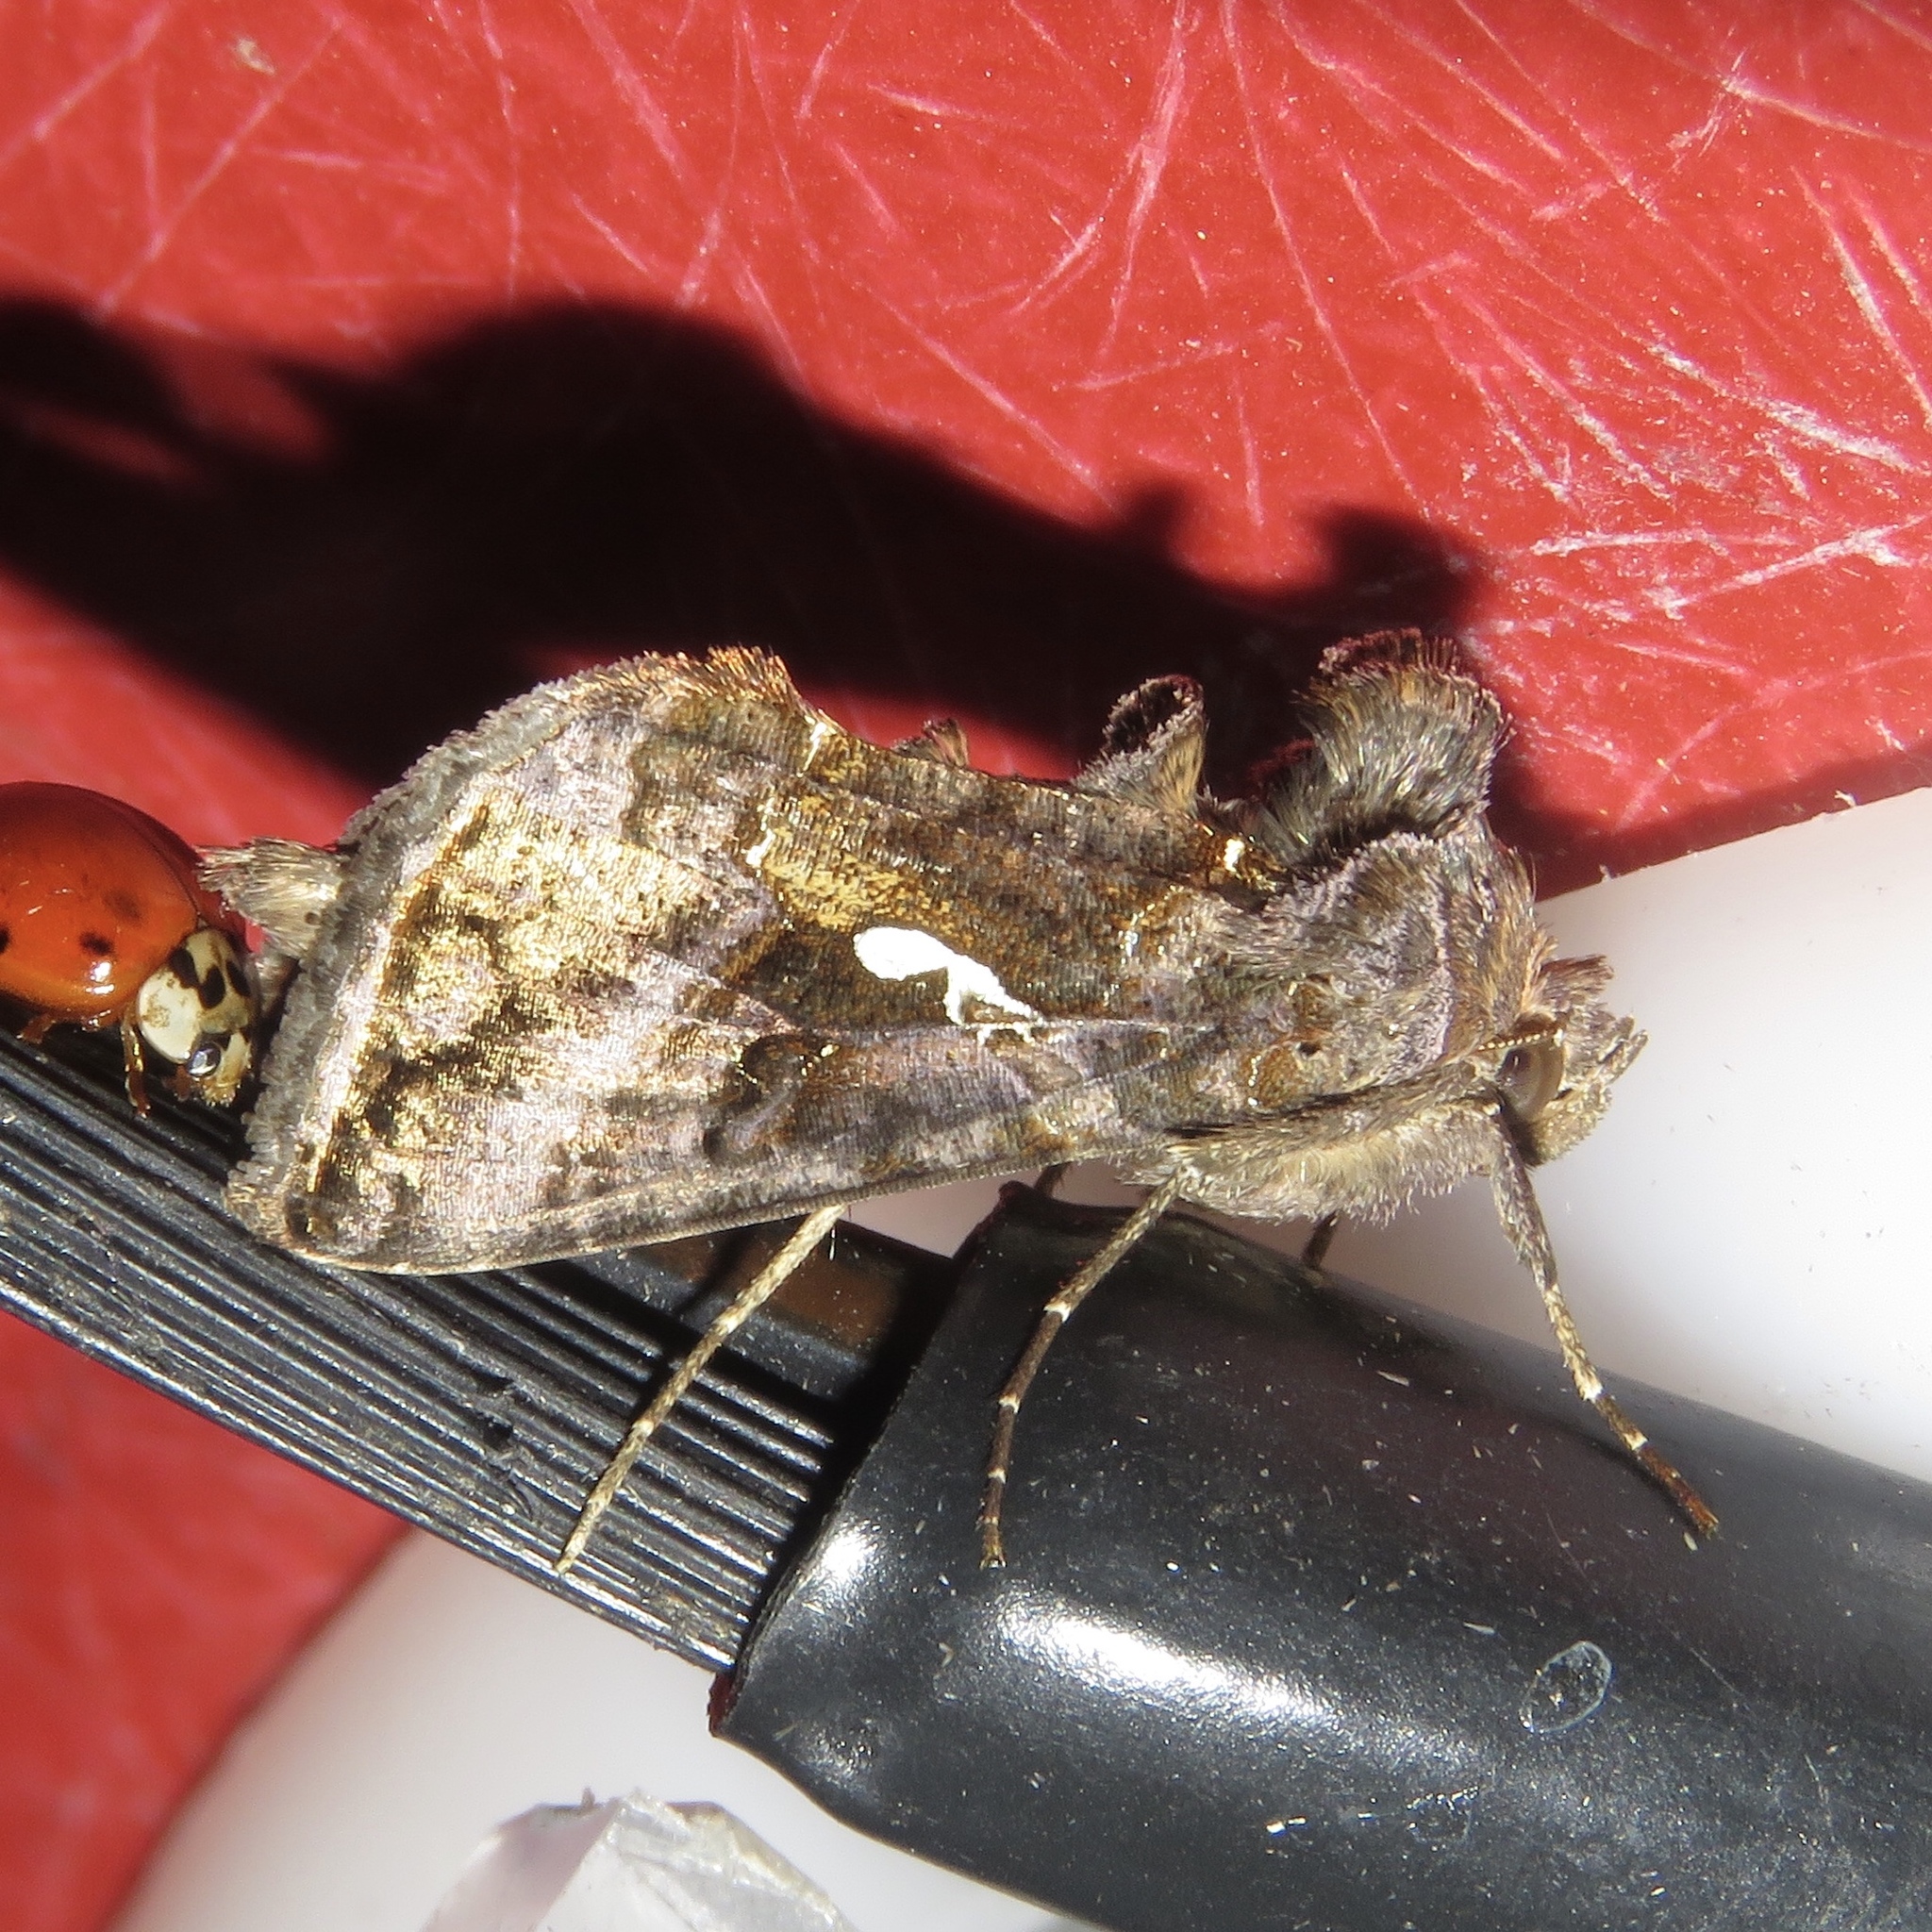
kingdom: Animalia
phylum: Arthropoda
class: Insecta
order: Lepidoptera
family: Noctuidae
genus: Autographa
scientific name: Autographa precationis
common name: Common looper moth
